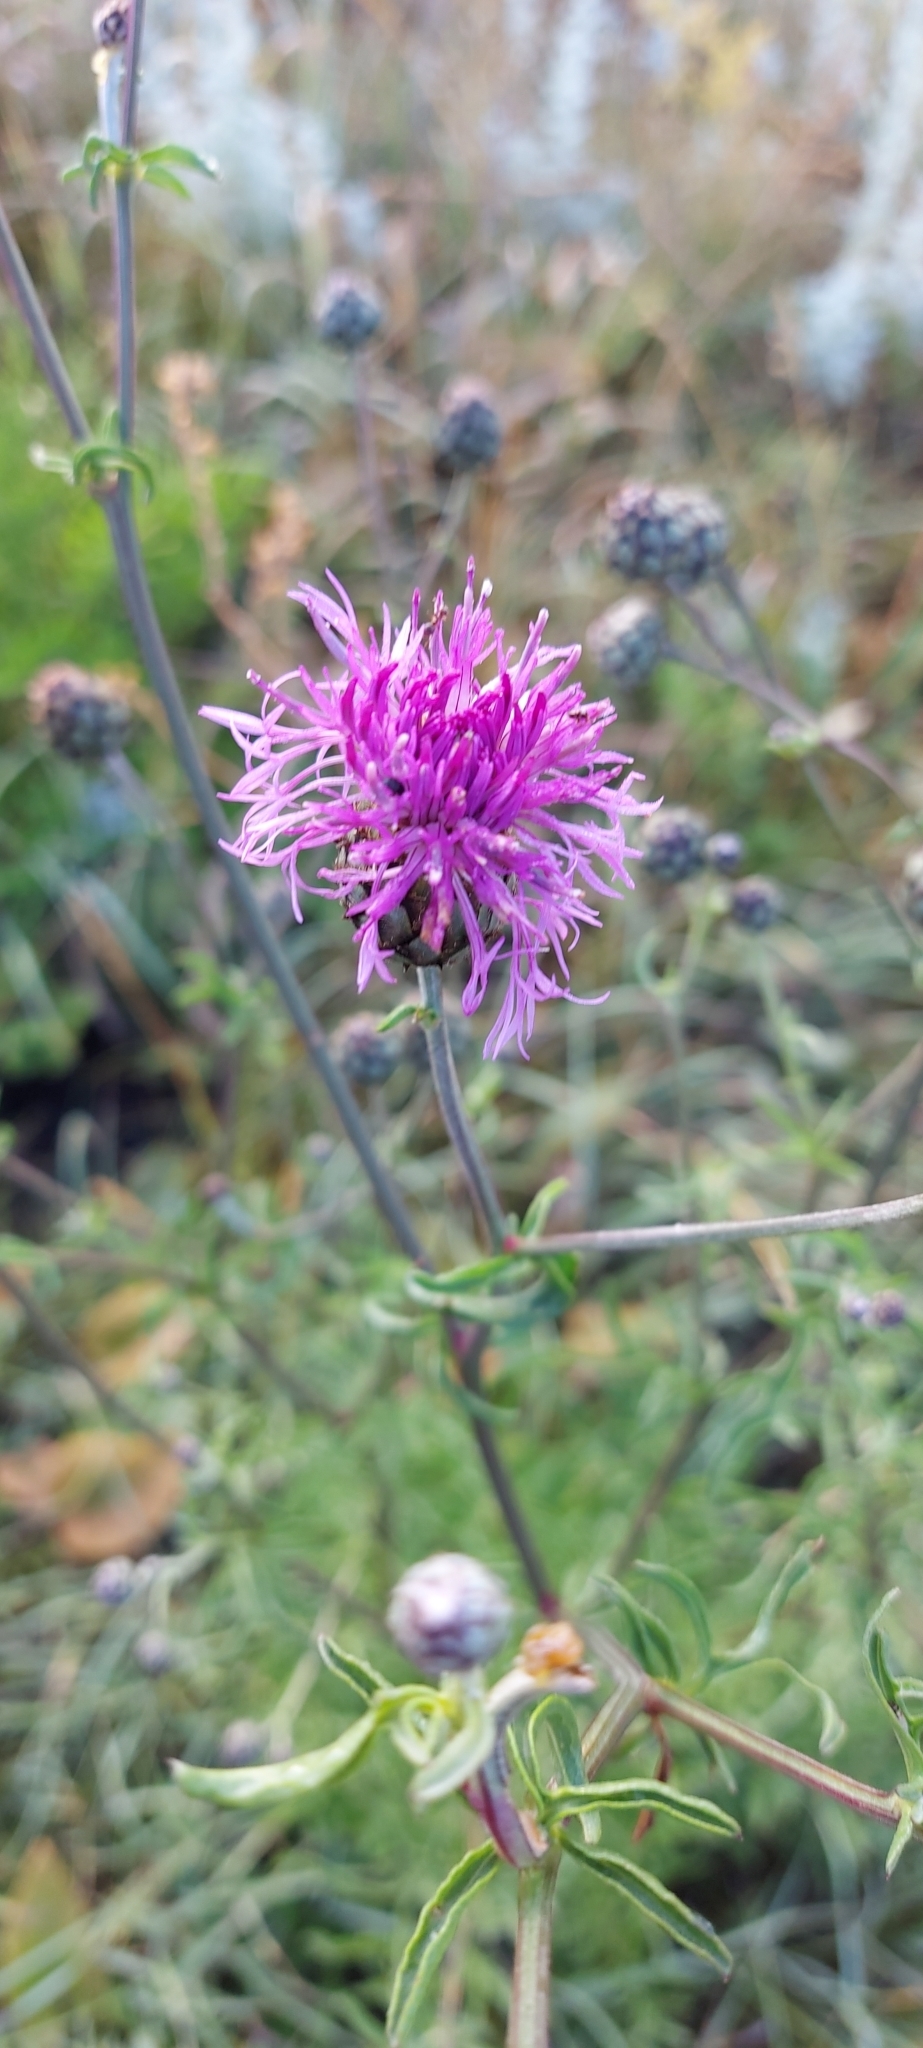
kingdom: Plantae
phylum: Tracheophyta
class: Magnoliopsida
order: Asterales
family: Asteraceae
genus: Centaurea
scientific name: Centaurea scabiosa
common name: Greater knapweed
